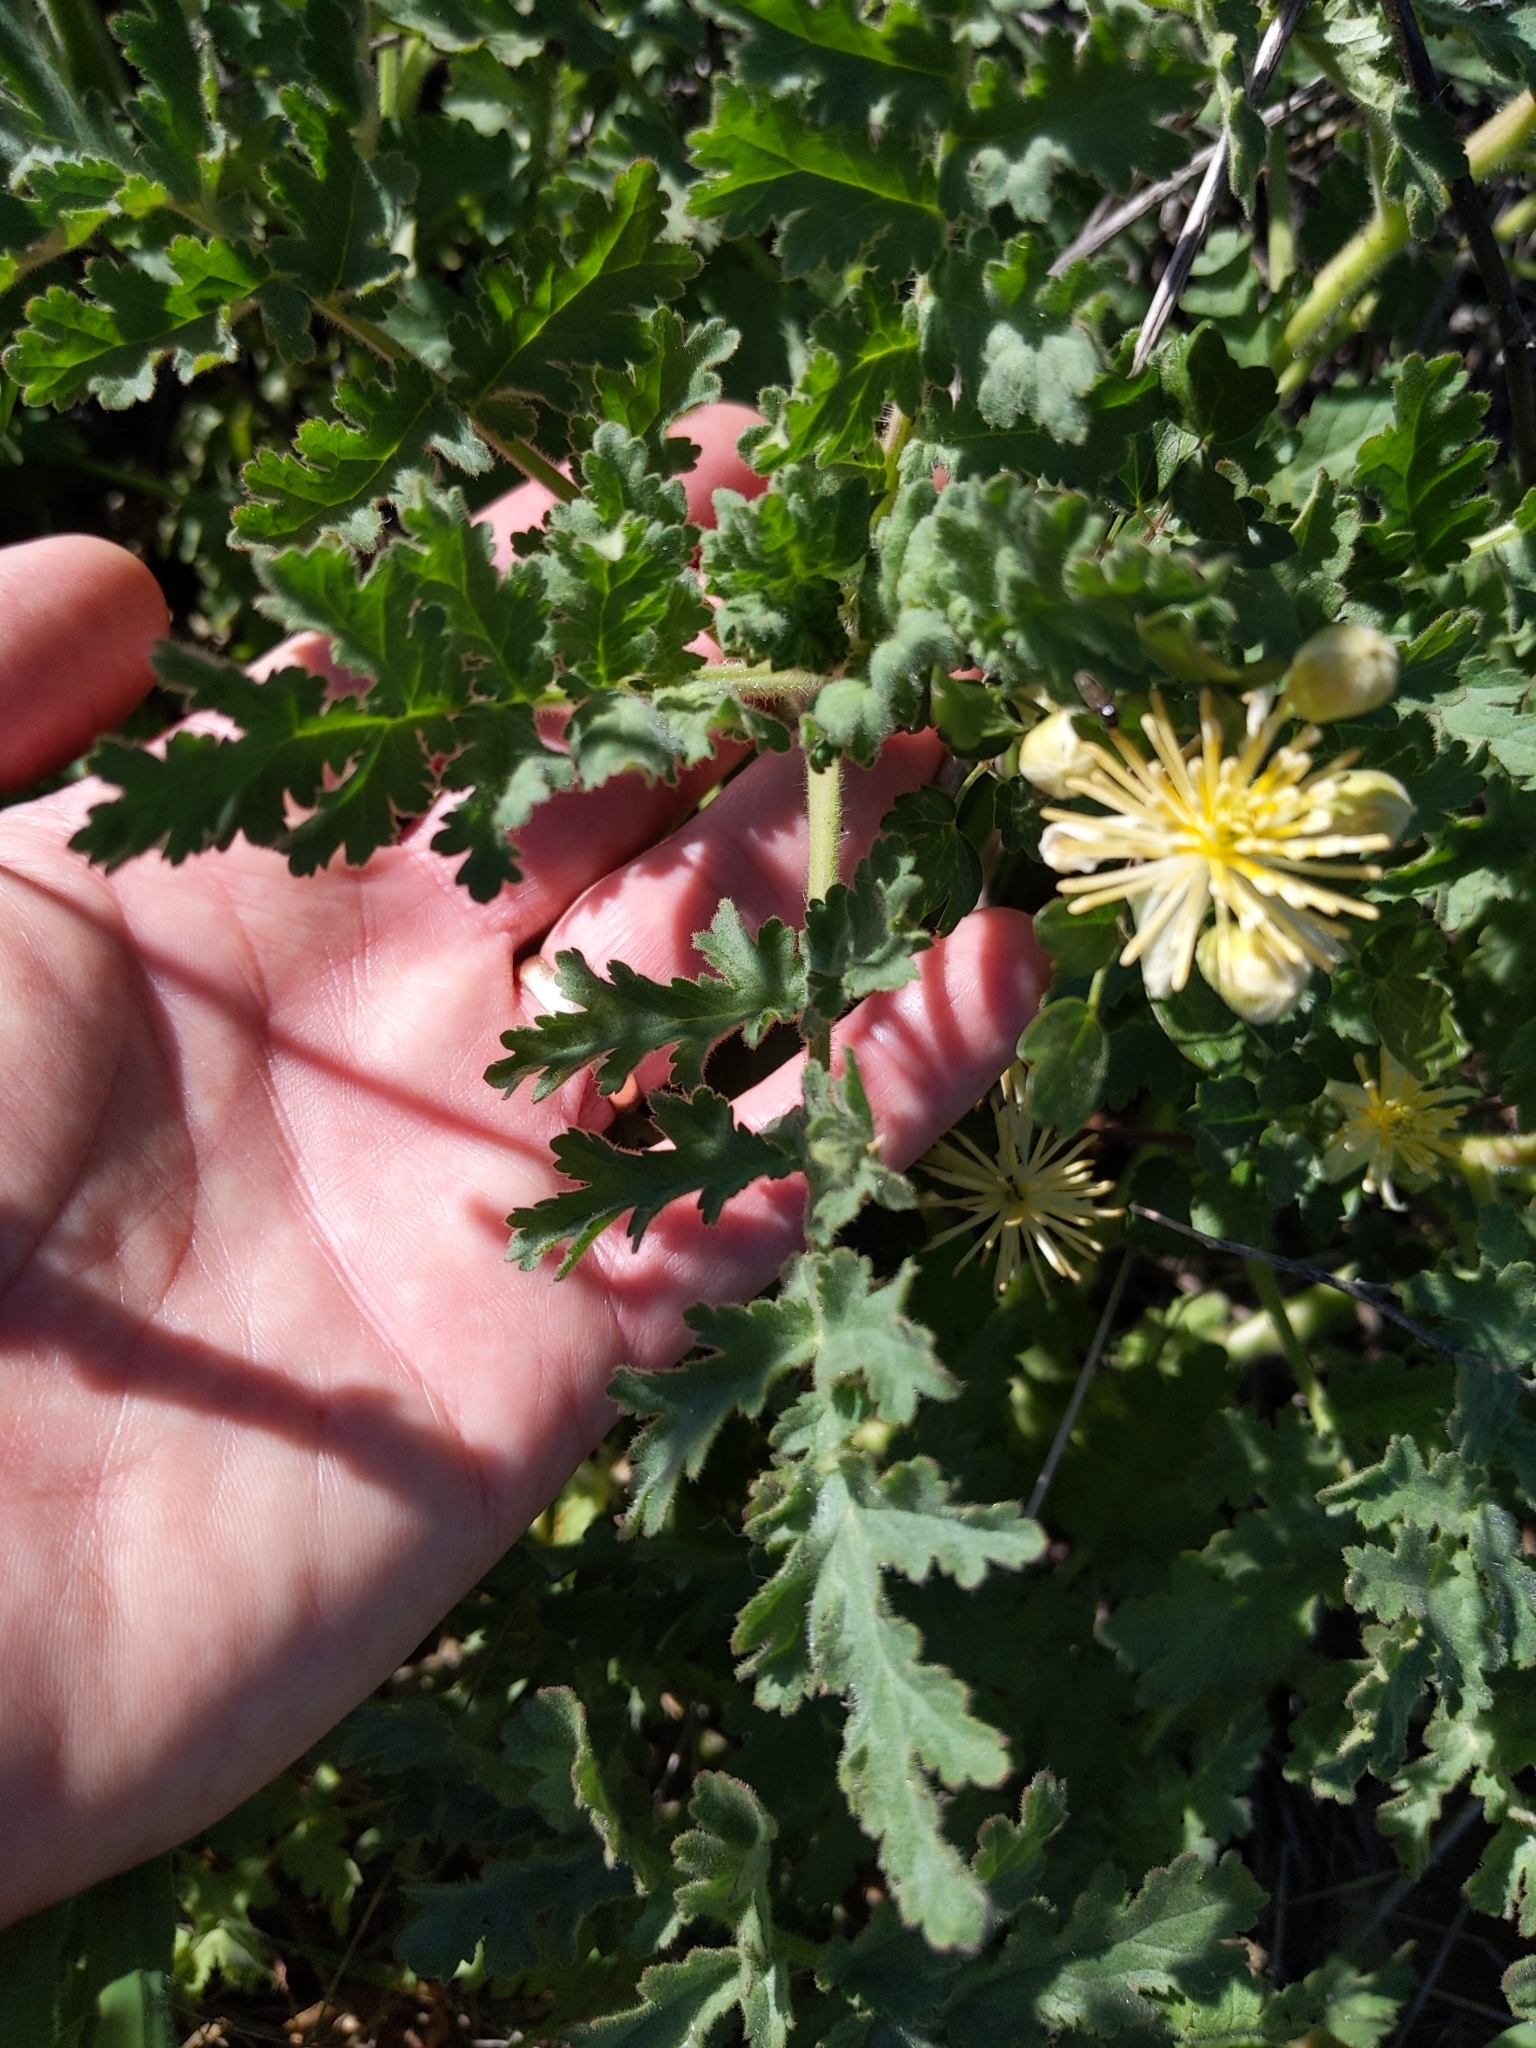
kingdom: Plantae
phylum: Tracheophyta
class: Magnoliopsida
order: Ranunculales
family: Ranunculaceae
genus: Clematis
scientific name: Clematis pauciflora
